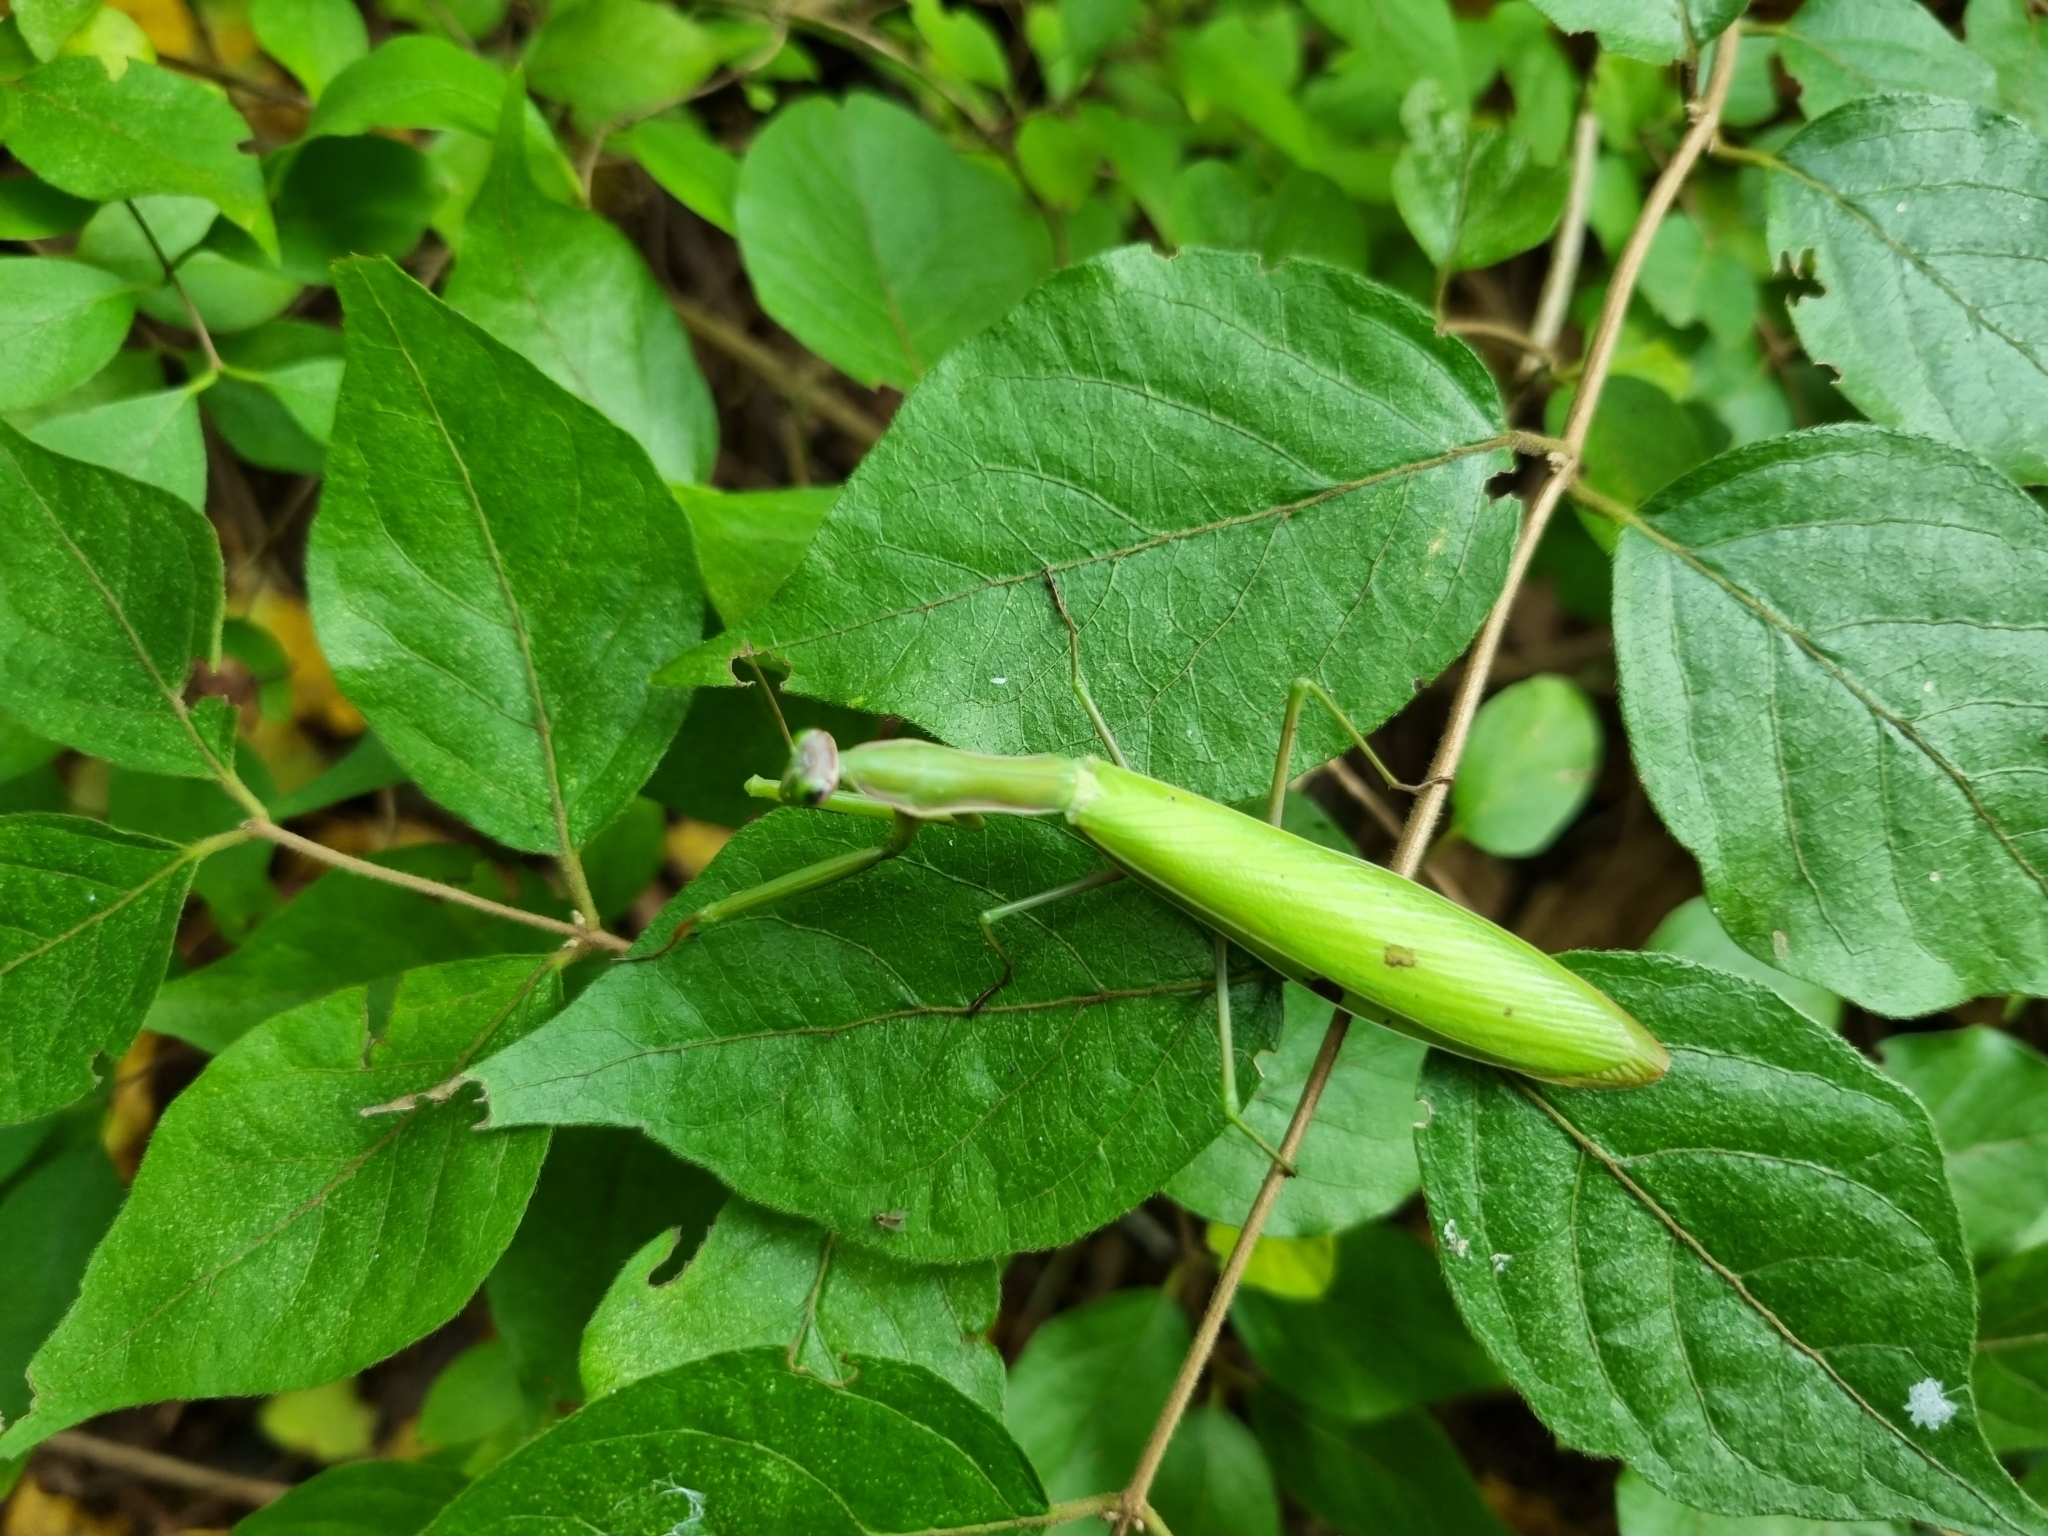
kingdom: Animalia
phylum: Arthropoda
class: Insecta
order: Mantodea
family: Mantidae
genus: Mantis
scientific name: Mantis religiosa
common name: Praying mantis
